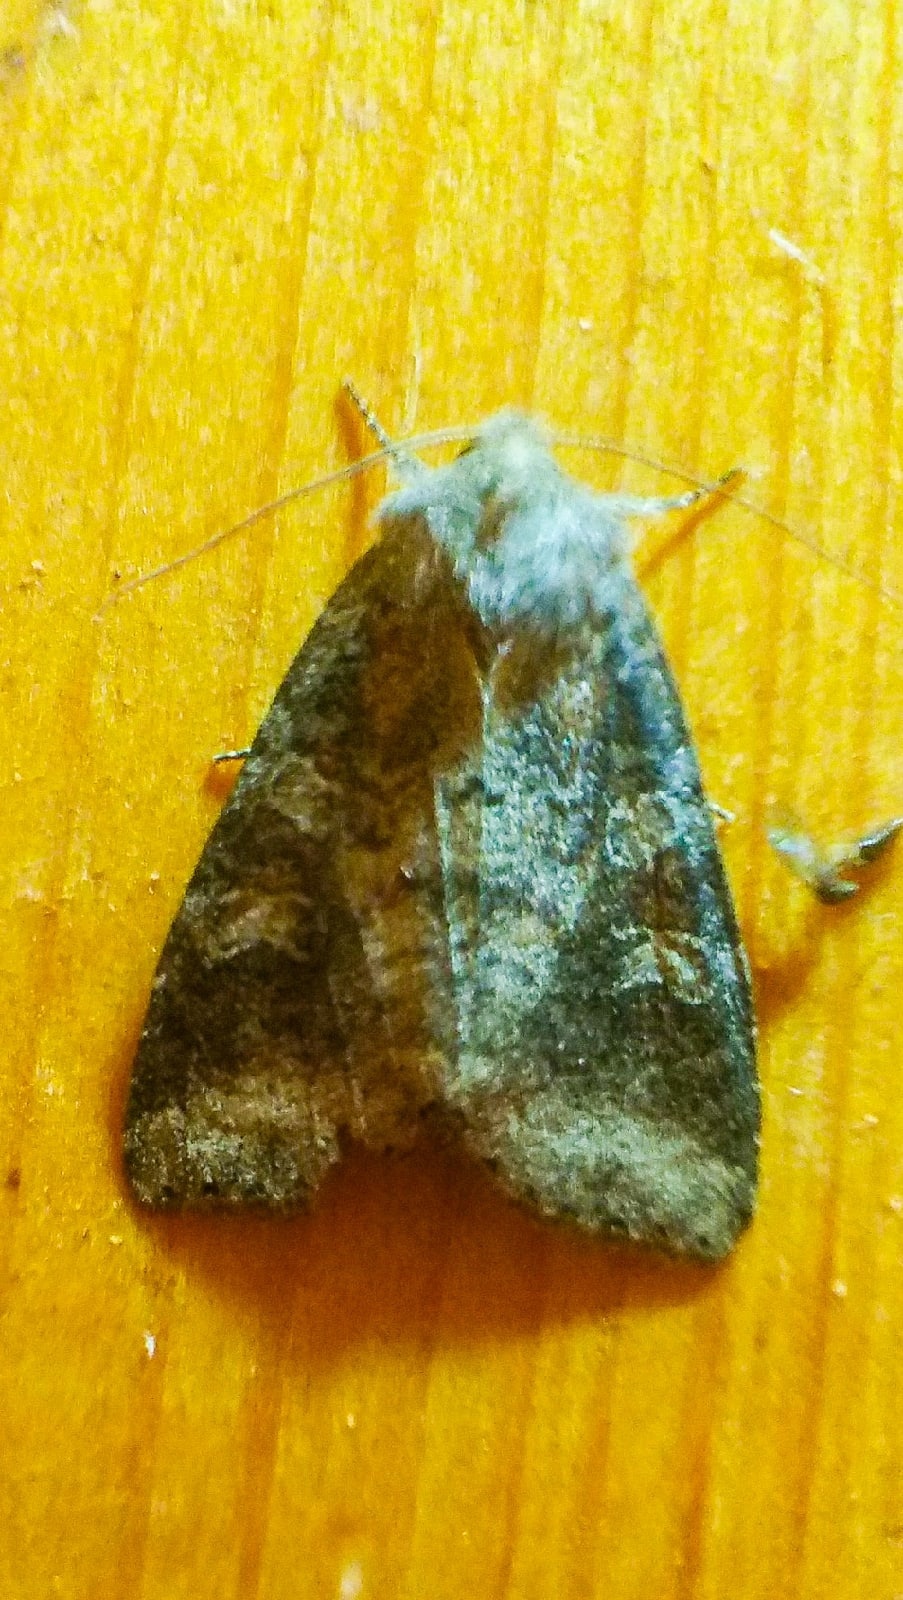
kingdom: Animalia
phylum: Arthropoda
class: Insecta
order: Lepidoptera
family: Noctuidae
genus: Parastichtis
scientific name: Parastichtis suspecta
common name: Suspected
